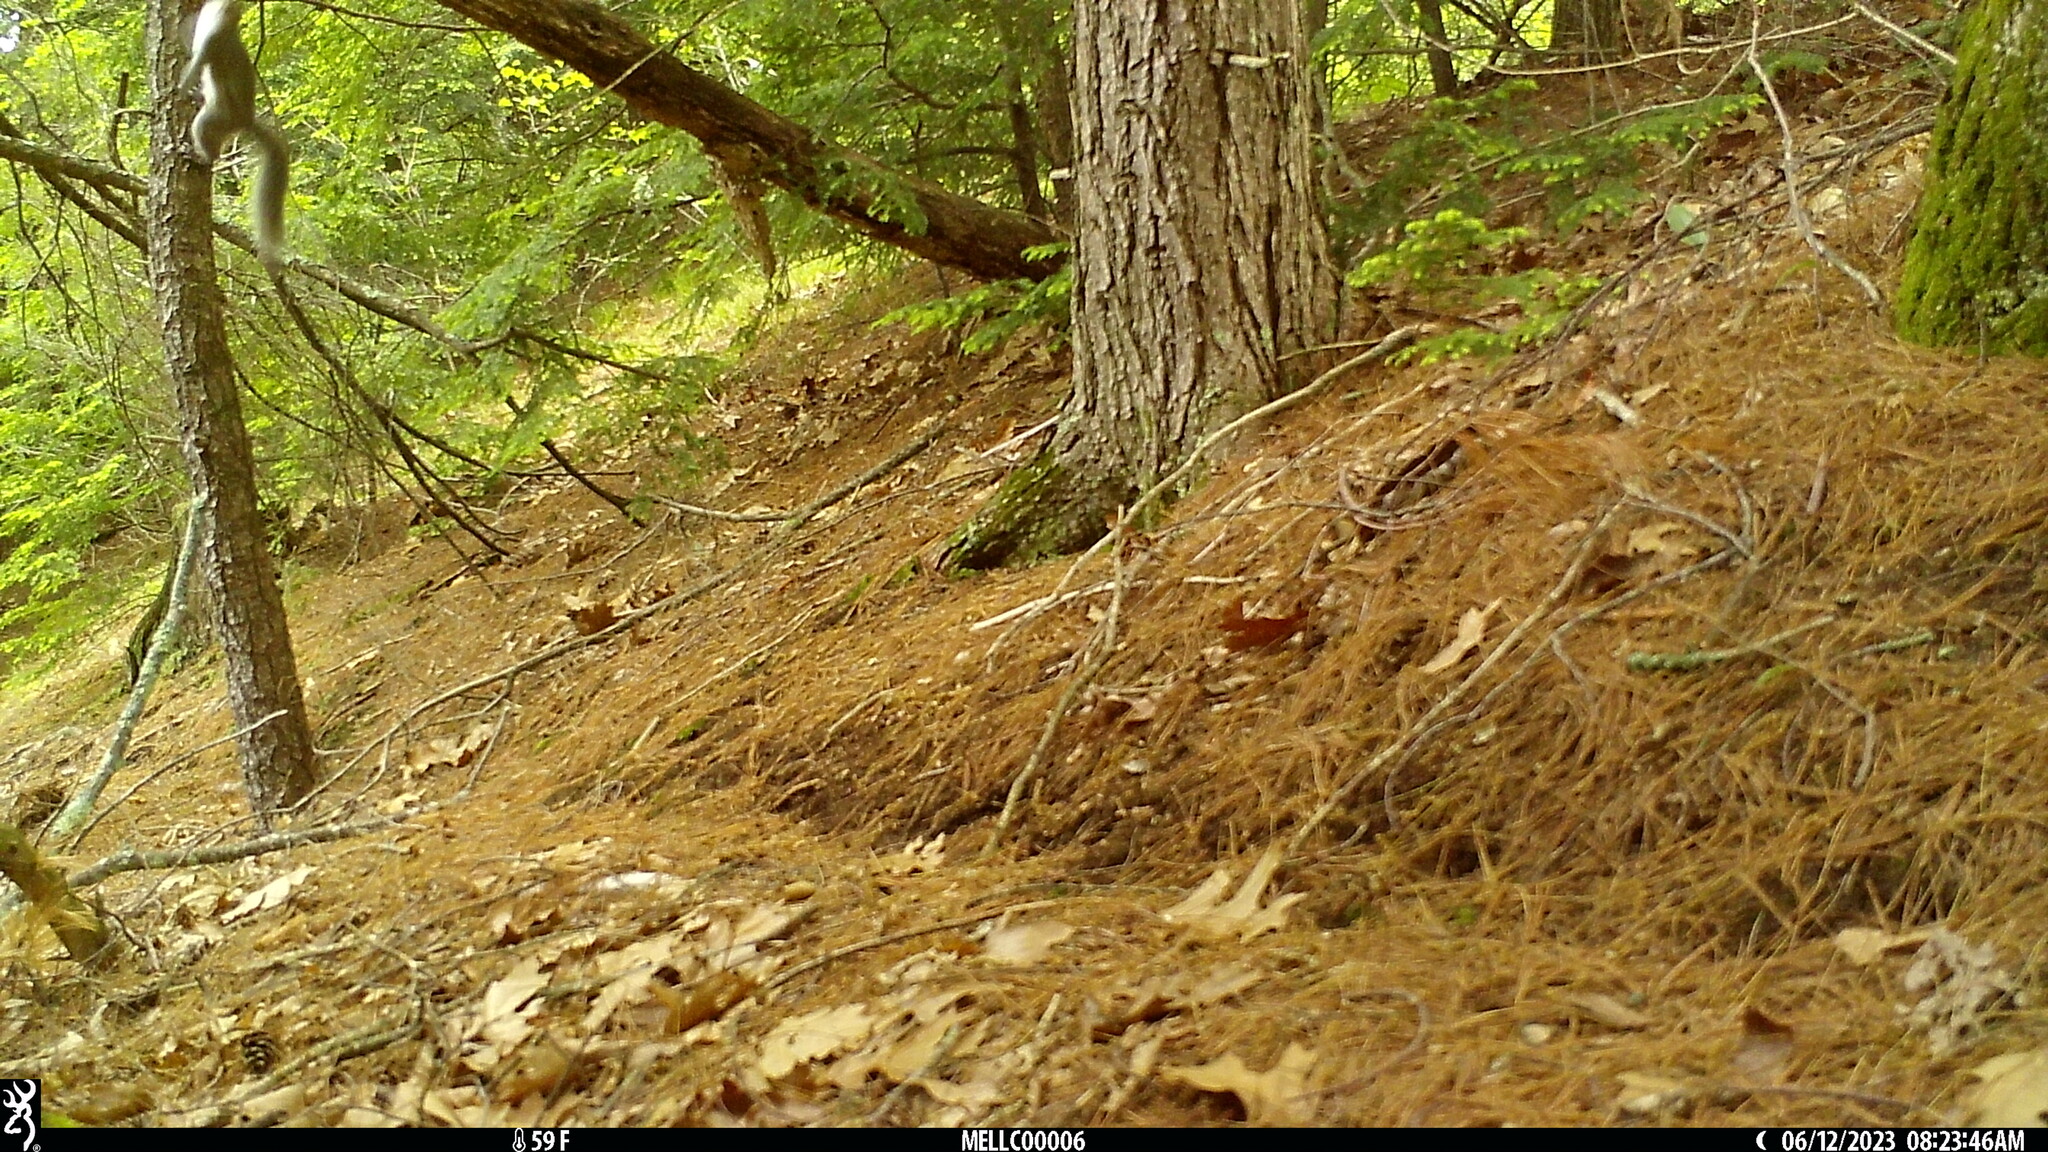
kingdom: Animalia
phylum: Chordata
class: Mammalia
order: Rodentia
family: Sciuridae
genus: Sciurus
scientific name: Sciurus carolinensis
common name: Eastern gray squirrel
